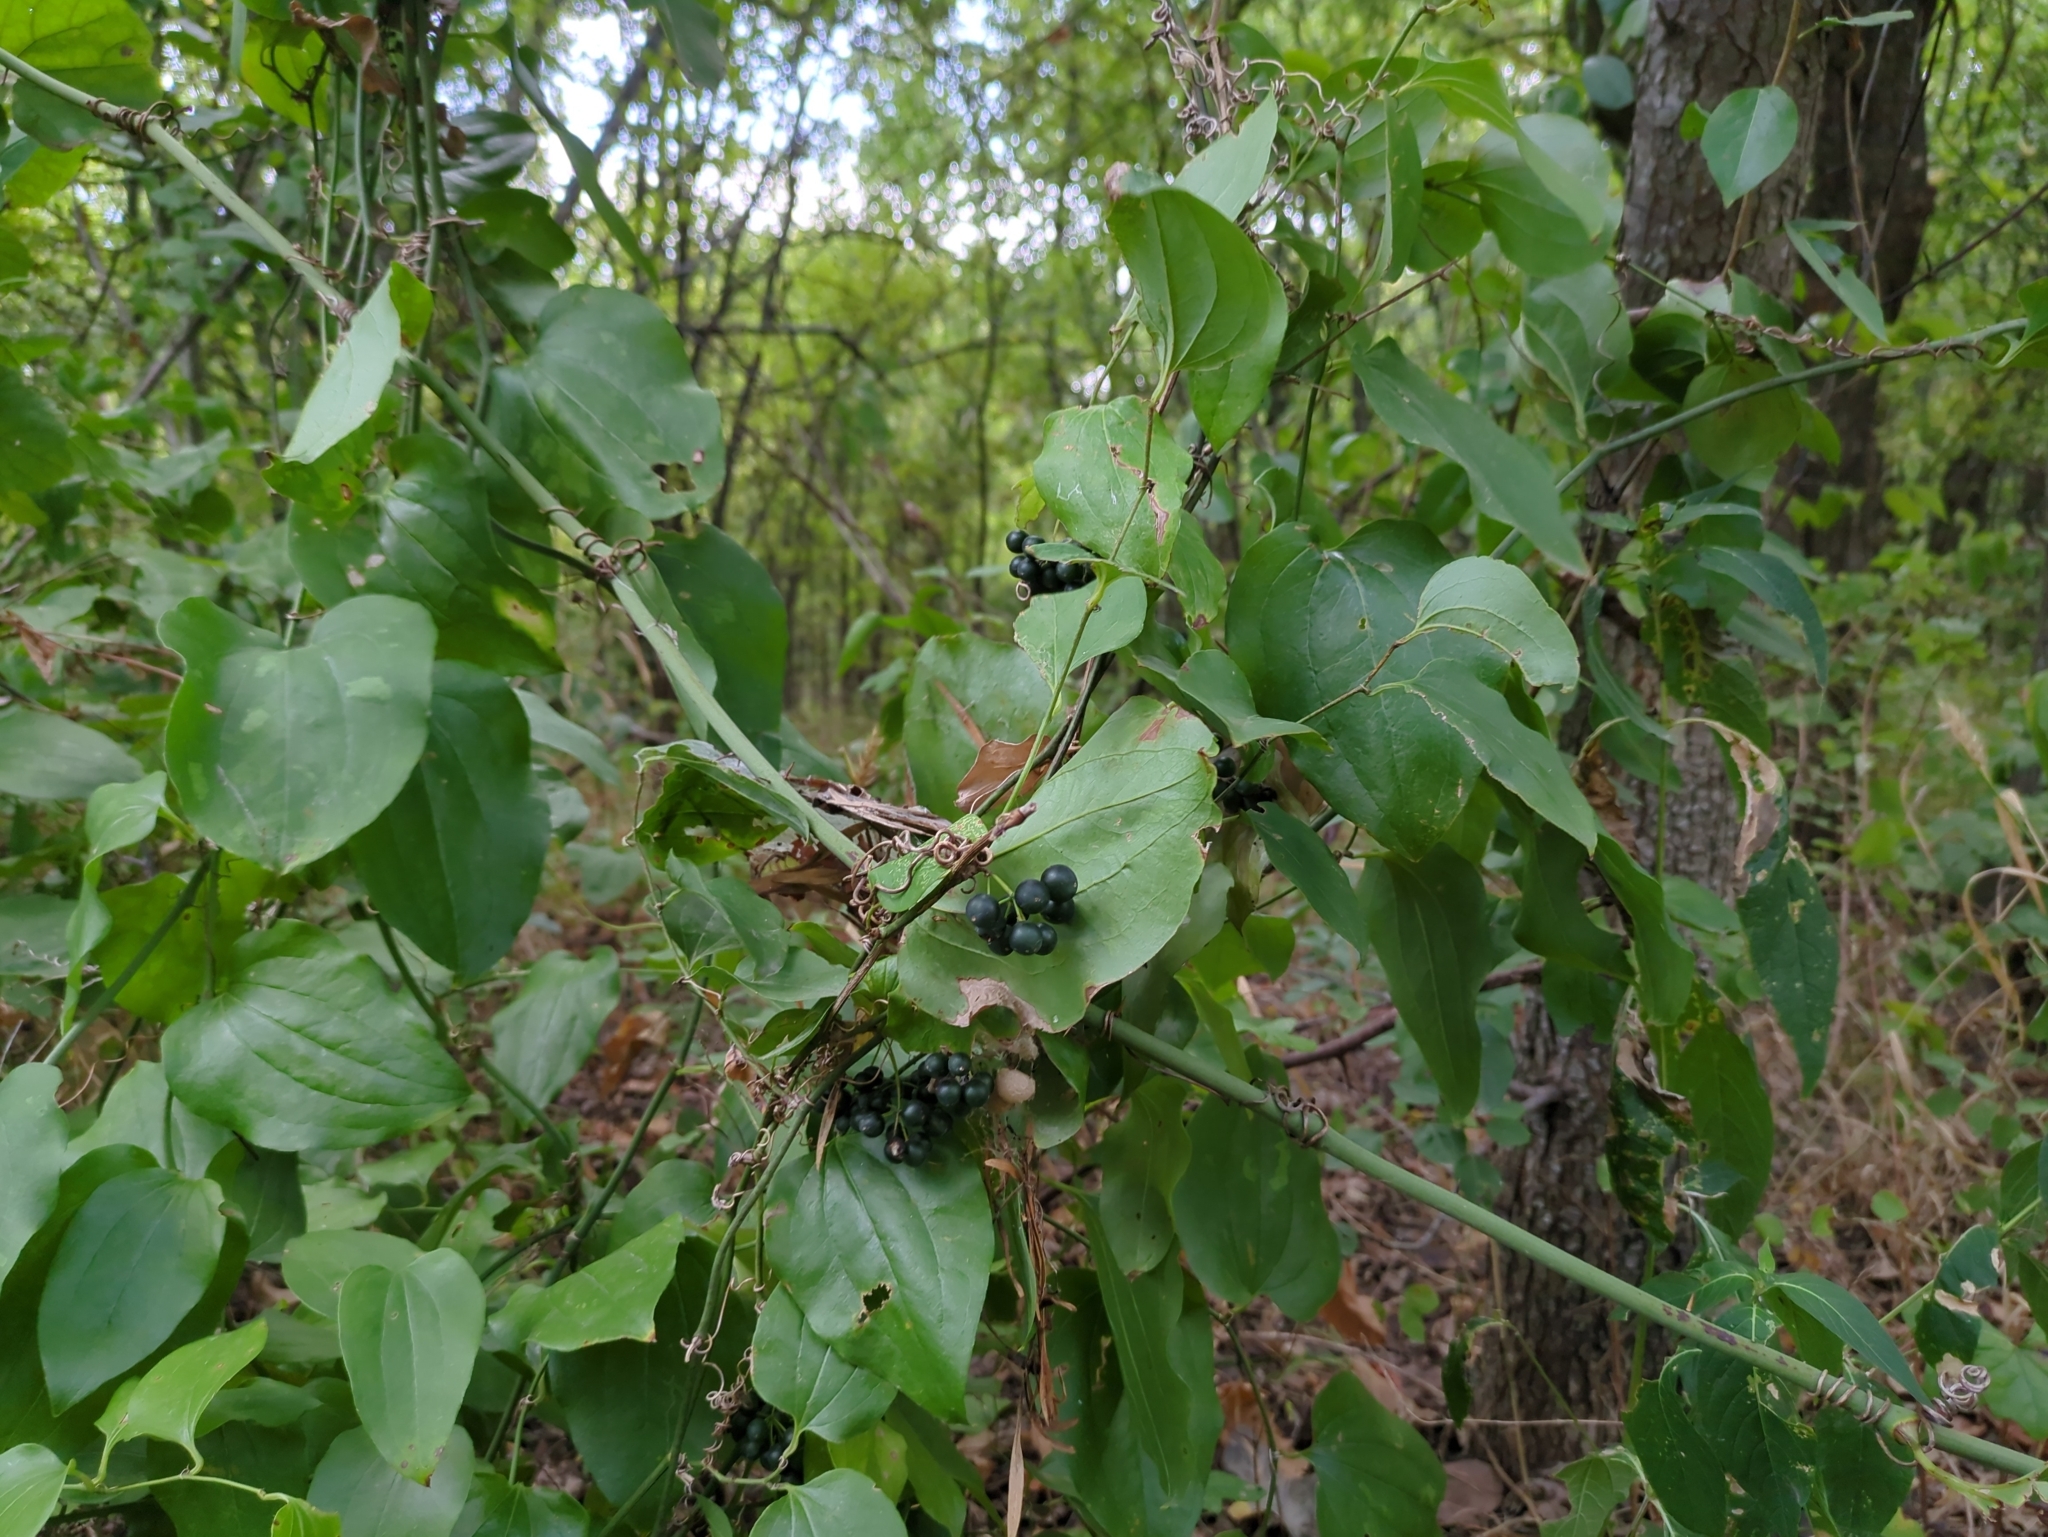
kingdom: Plantae
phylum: Tracheophyta
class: Liliopsida
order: Liliales
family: Smilacaceae
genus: Smilax
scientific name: Smilax rotundifolia
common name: Bullbriar
